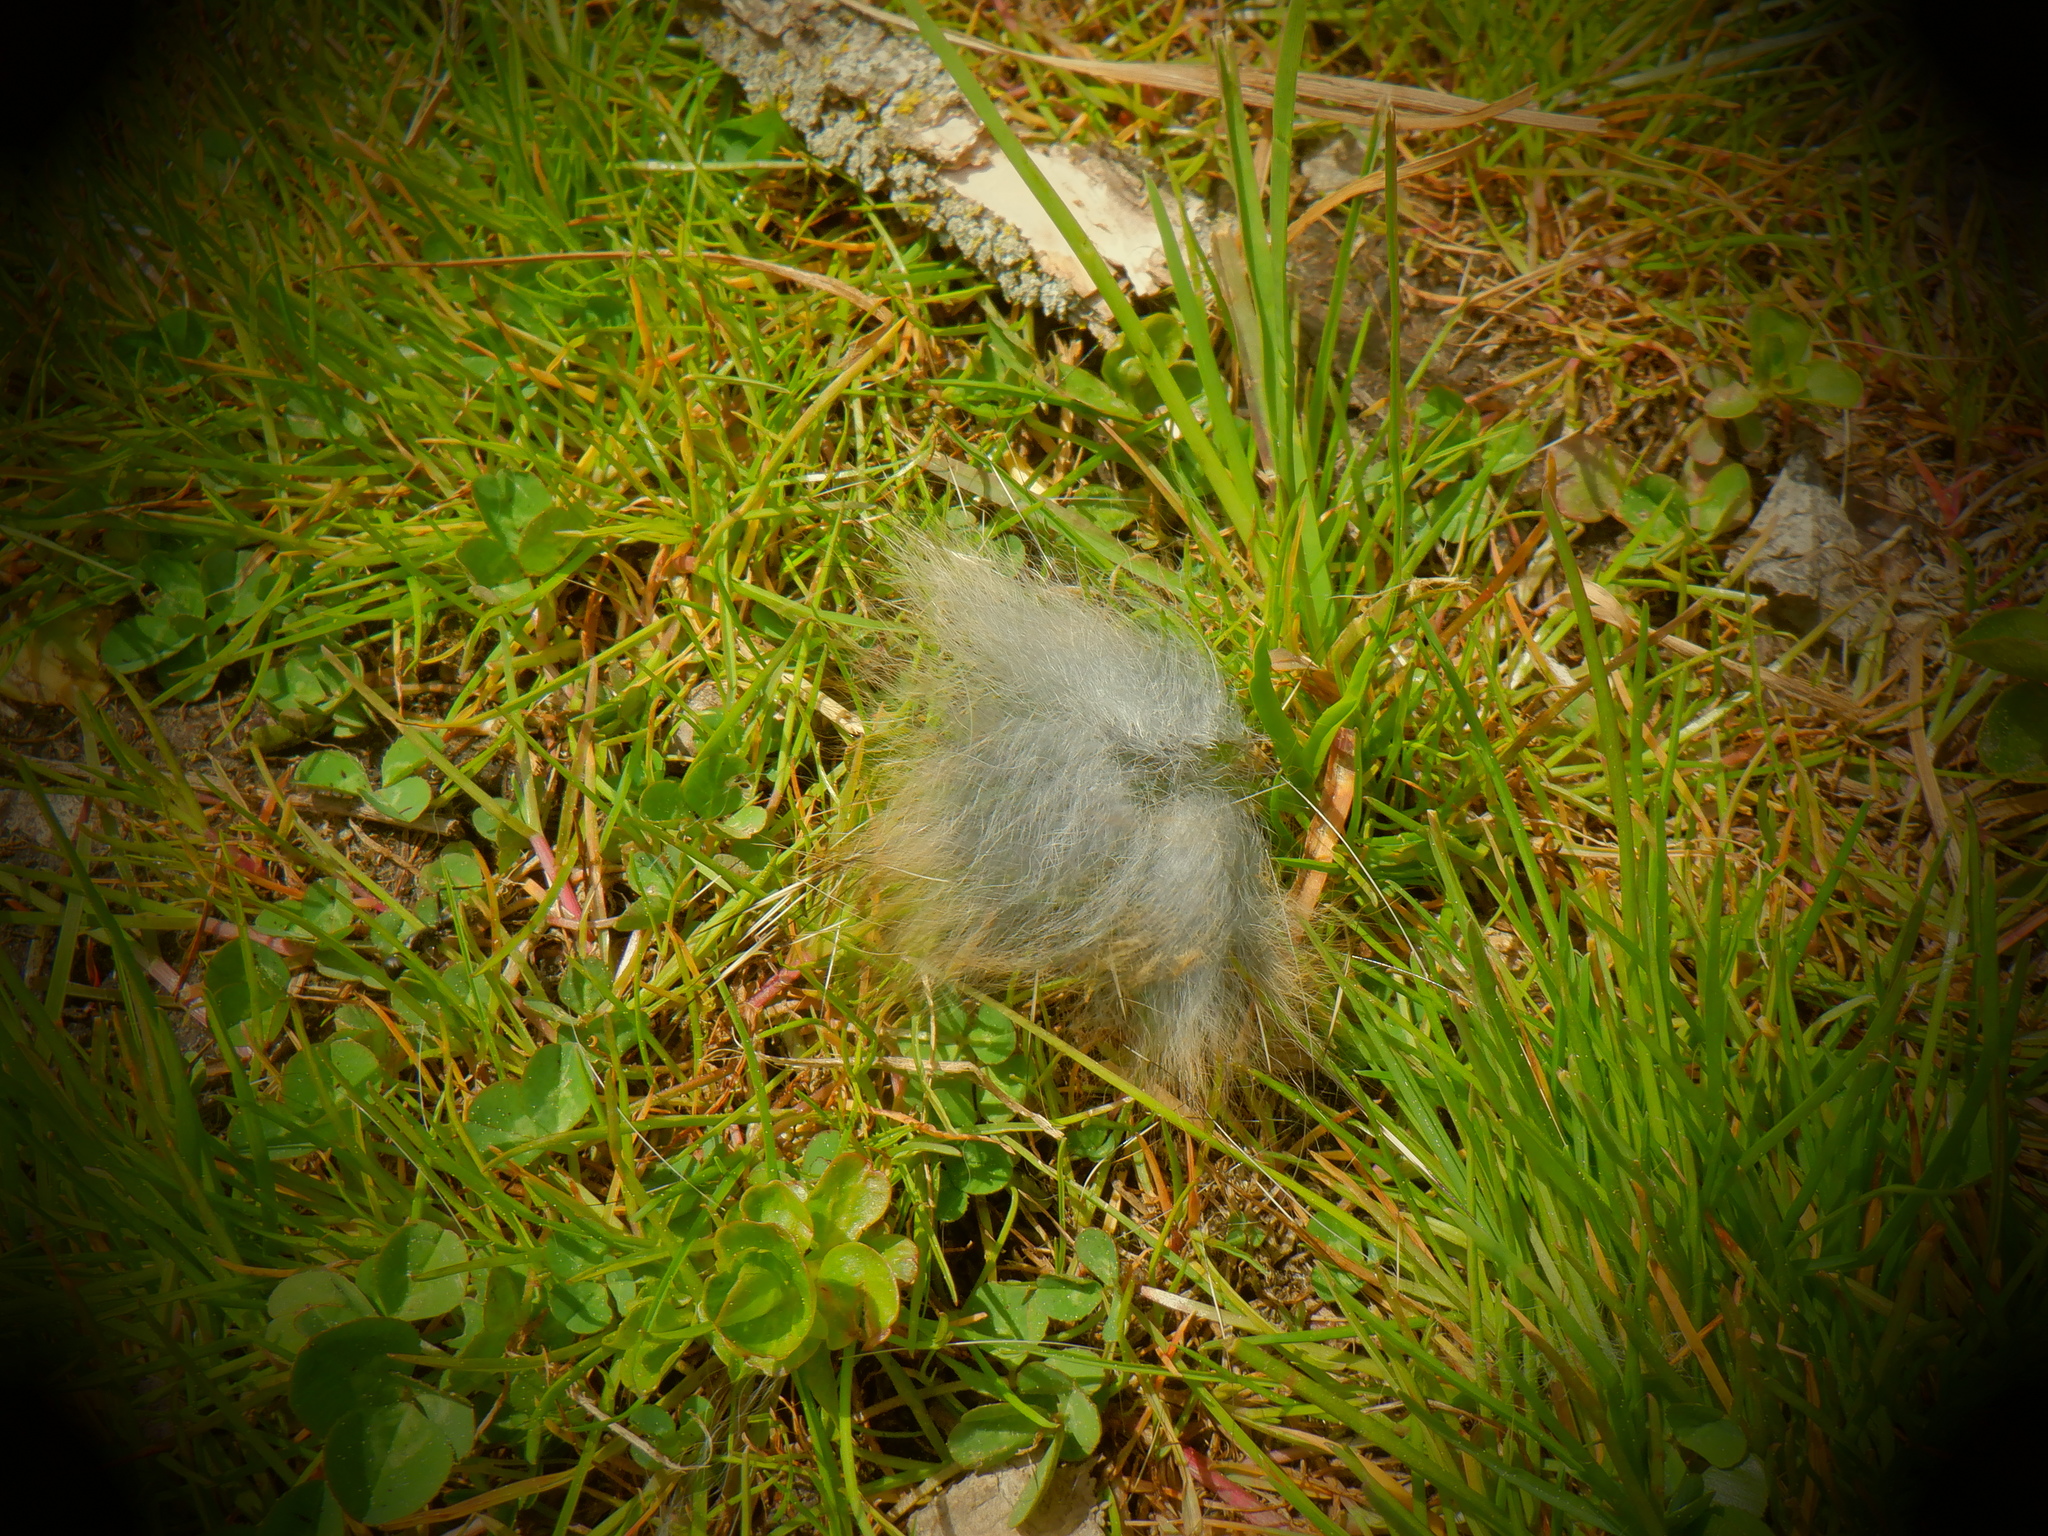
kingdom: Animalia
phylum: Chordata
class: Mammalia
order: Lagomorpha
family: Leporidae
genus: Sylvilagus
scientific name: Sylvilagus floridanus
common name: Eastern cottontail
